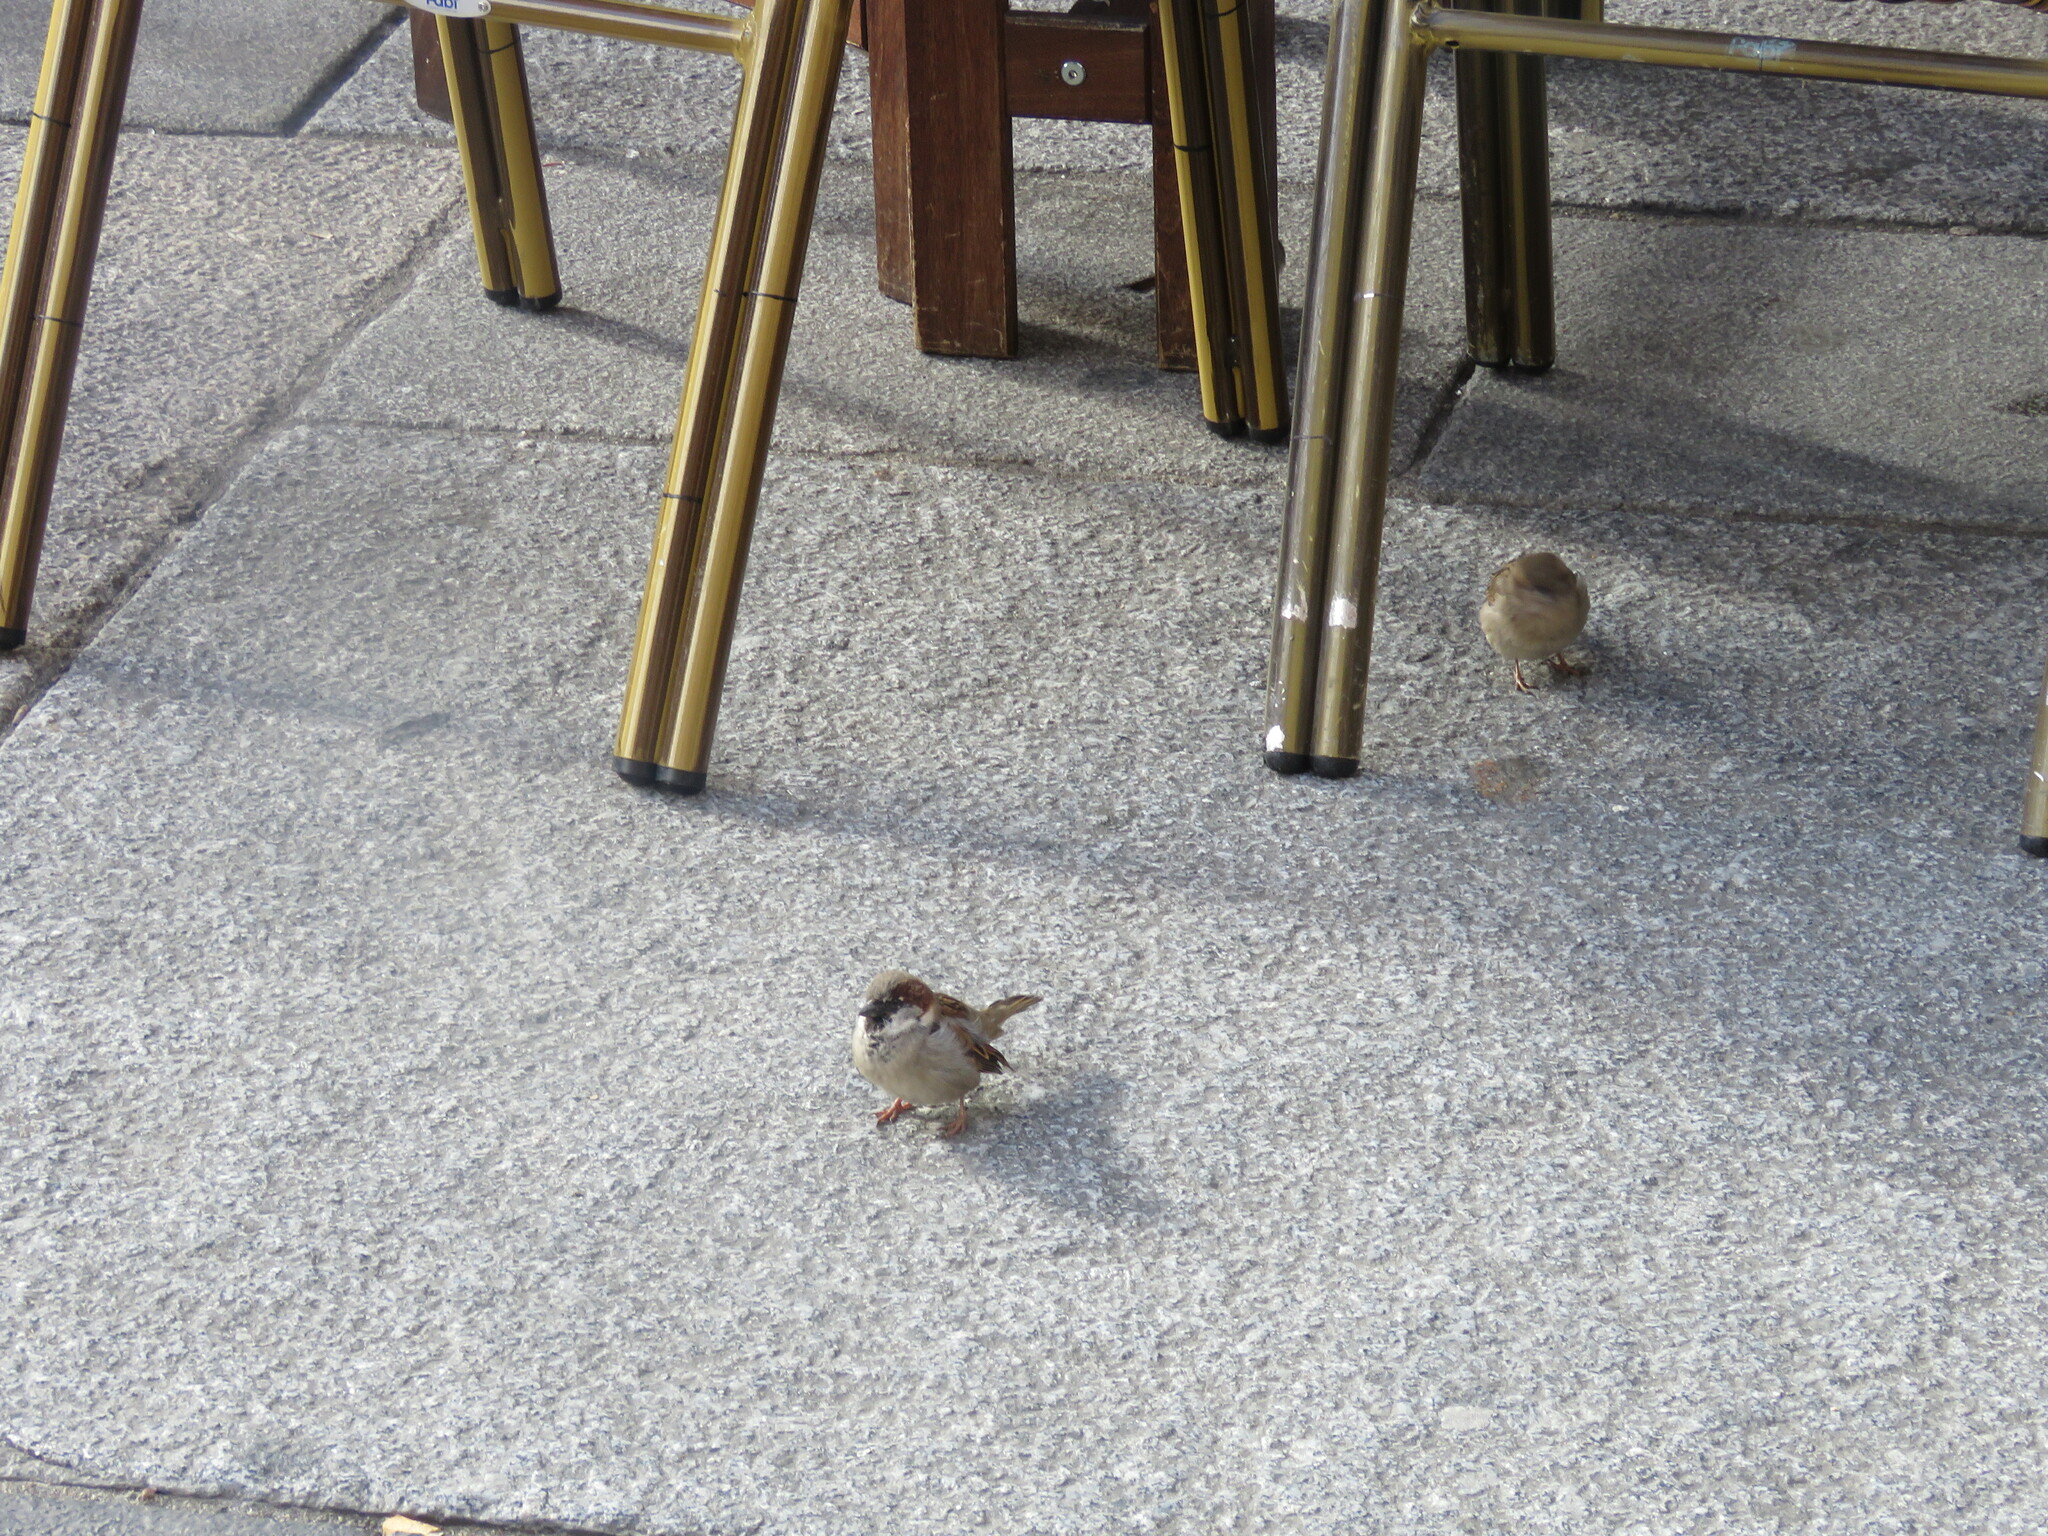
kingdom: Animalia
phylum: Chordata
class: Aves
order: Passeriformes
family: Passeridae
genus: Passer
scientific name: Passer domesticus
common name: House sparrow
